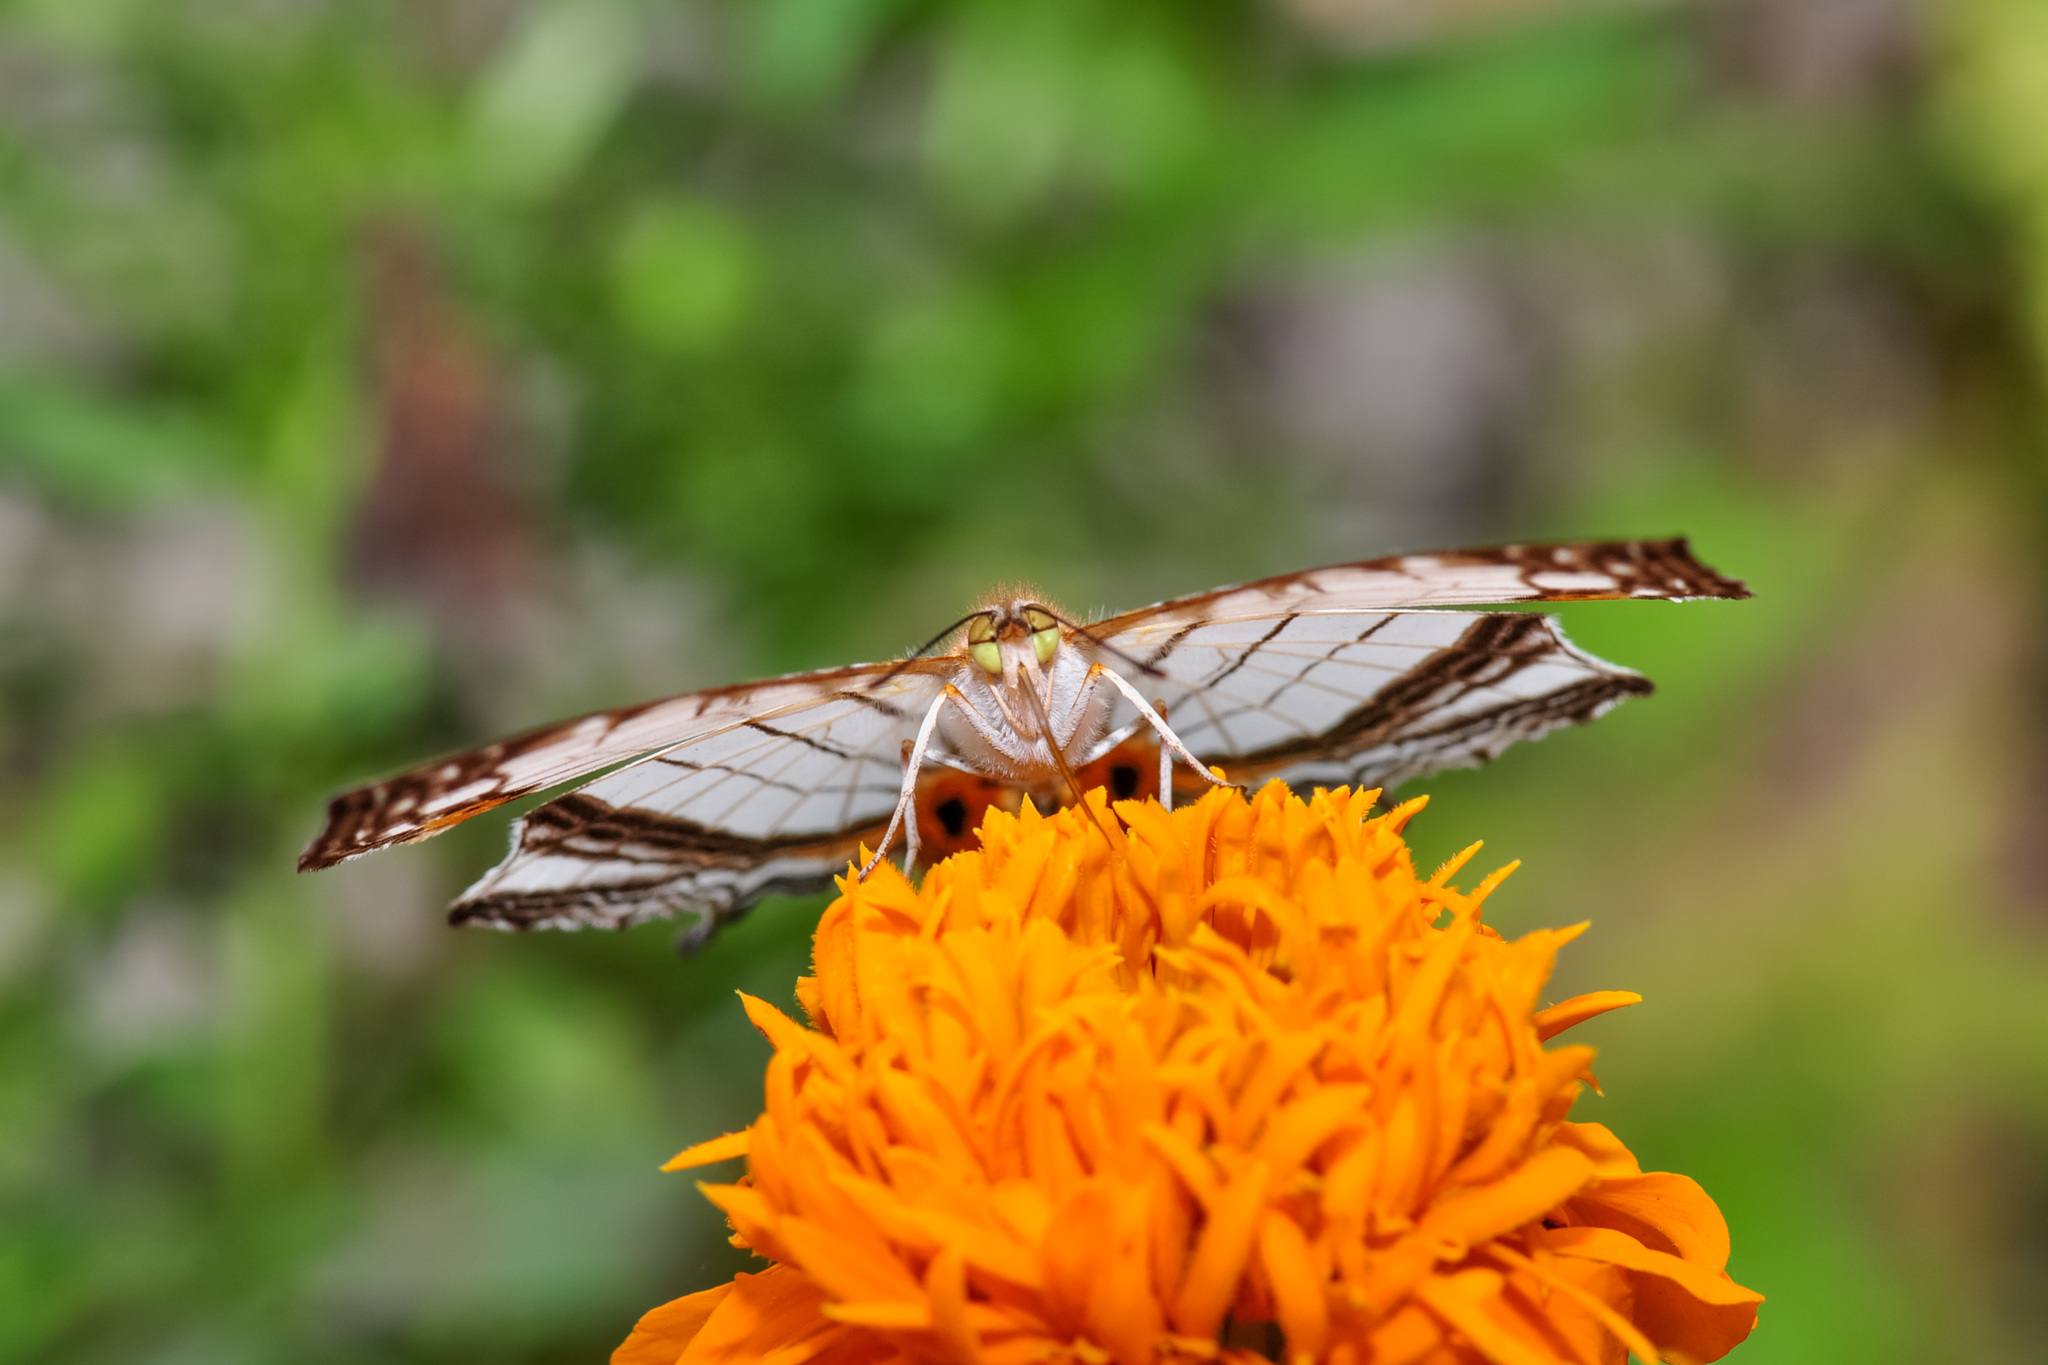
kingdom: Animalia
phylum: Arthropoda
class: Insecta
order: Lepidoptera
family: Nymphalidae
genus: Cyrestis
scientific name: Cyrestis maenalis
